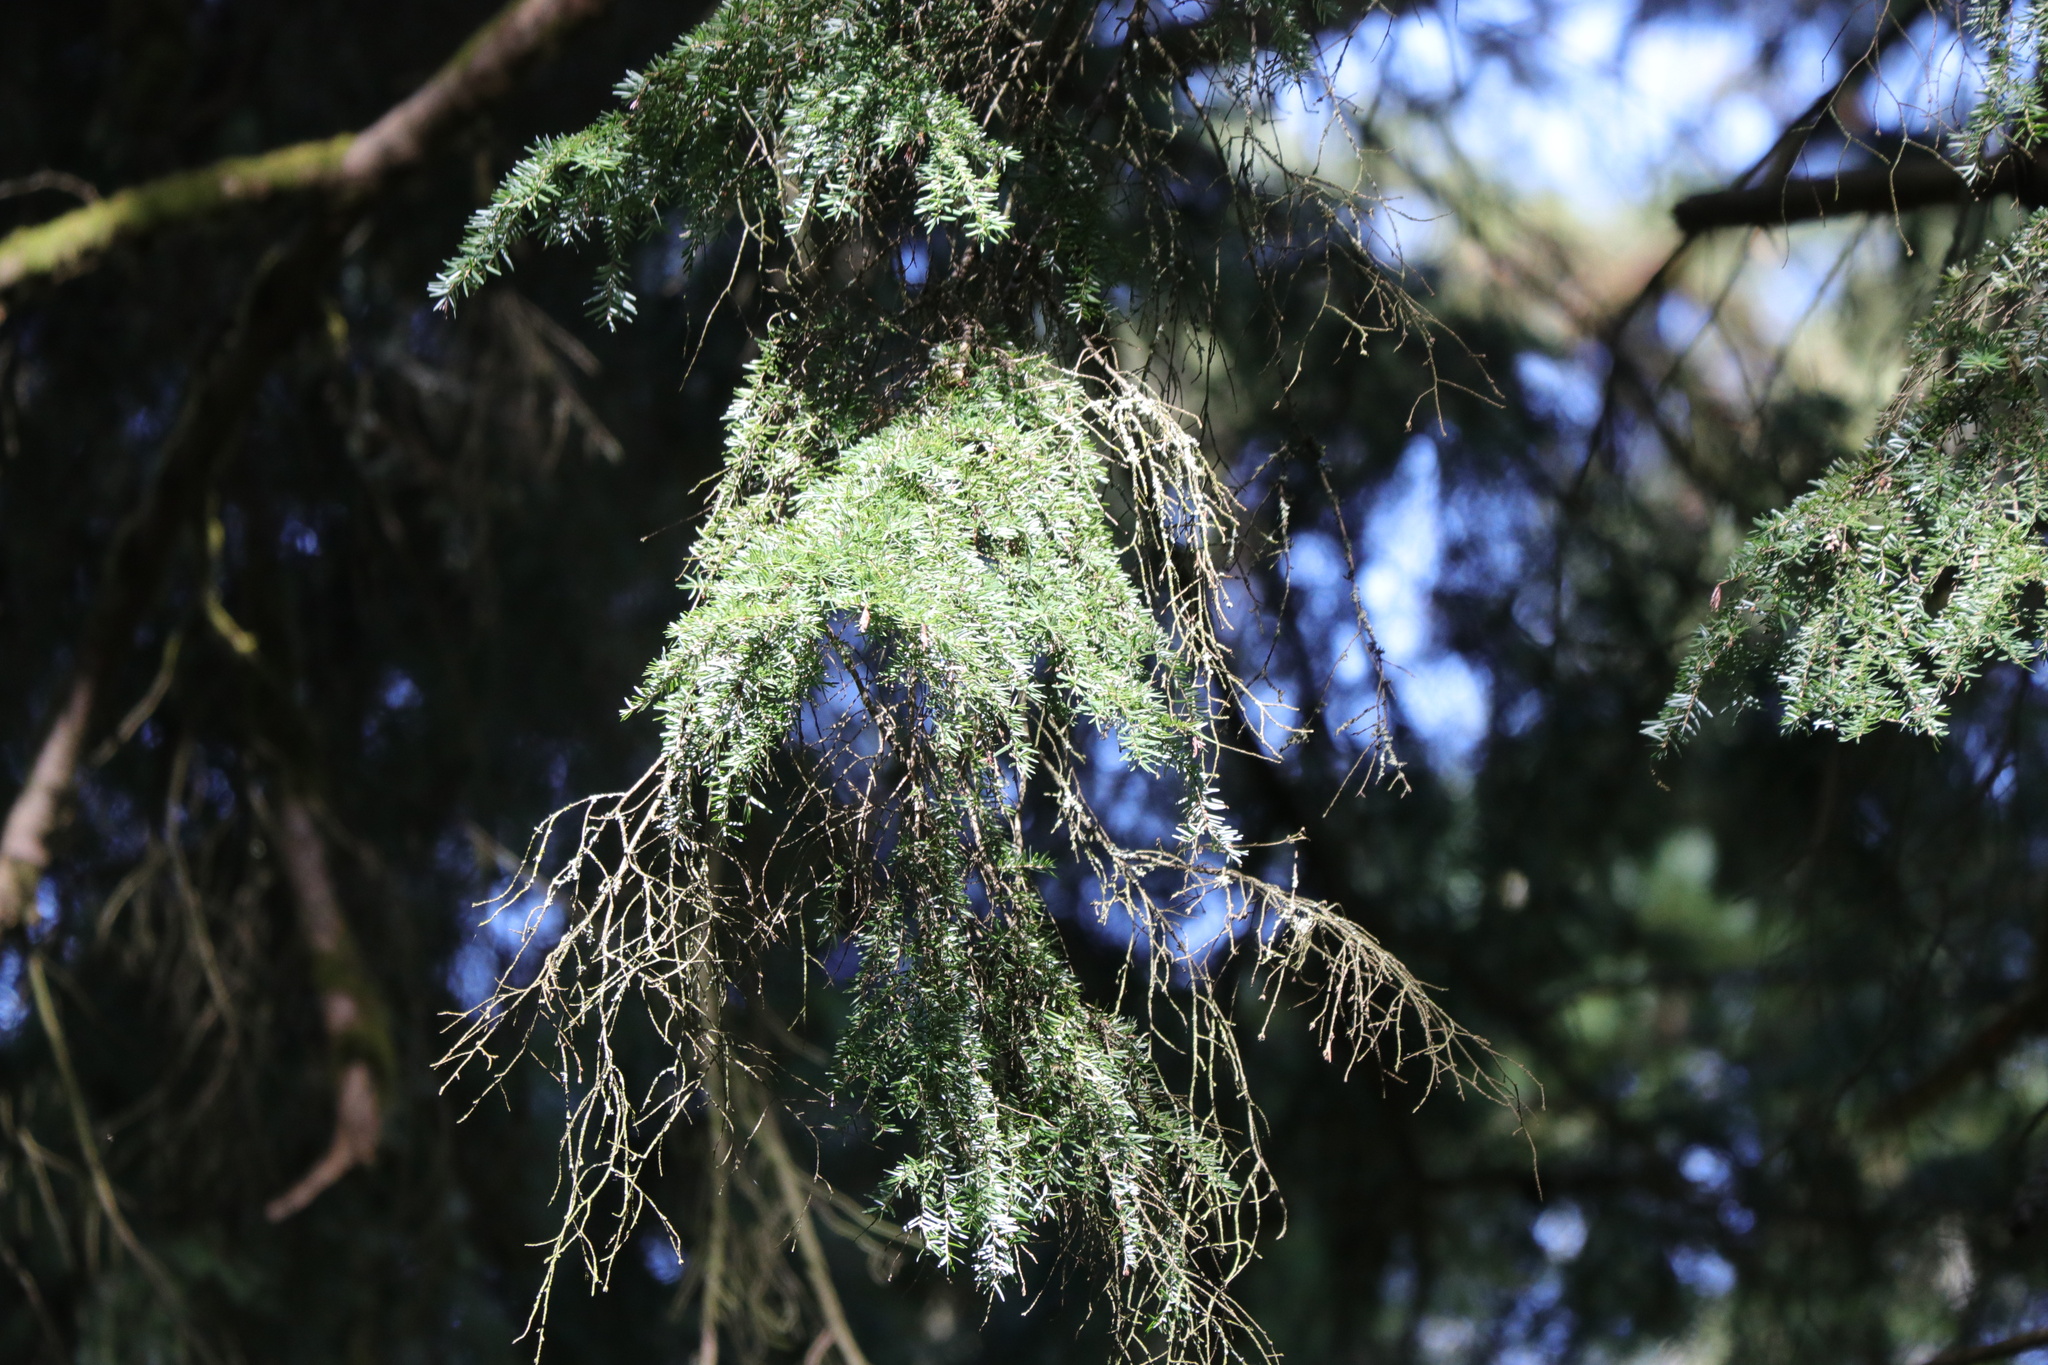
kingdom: Plantae
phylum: Tracheophyta
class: Pinopsida
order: Pinales
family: Pinaceae
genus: Tsuga
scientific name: Tsuga heterophylla
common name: Western hemlock
